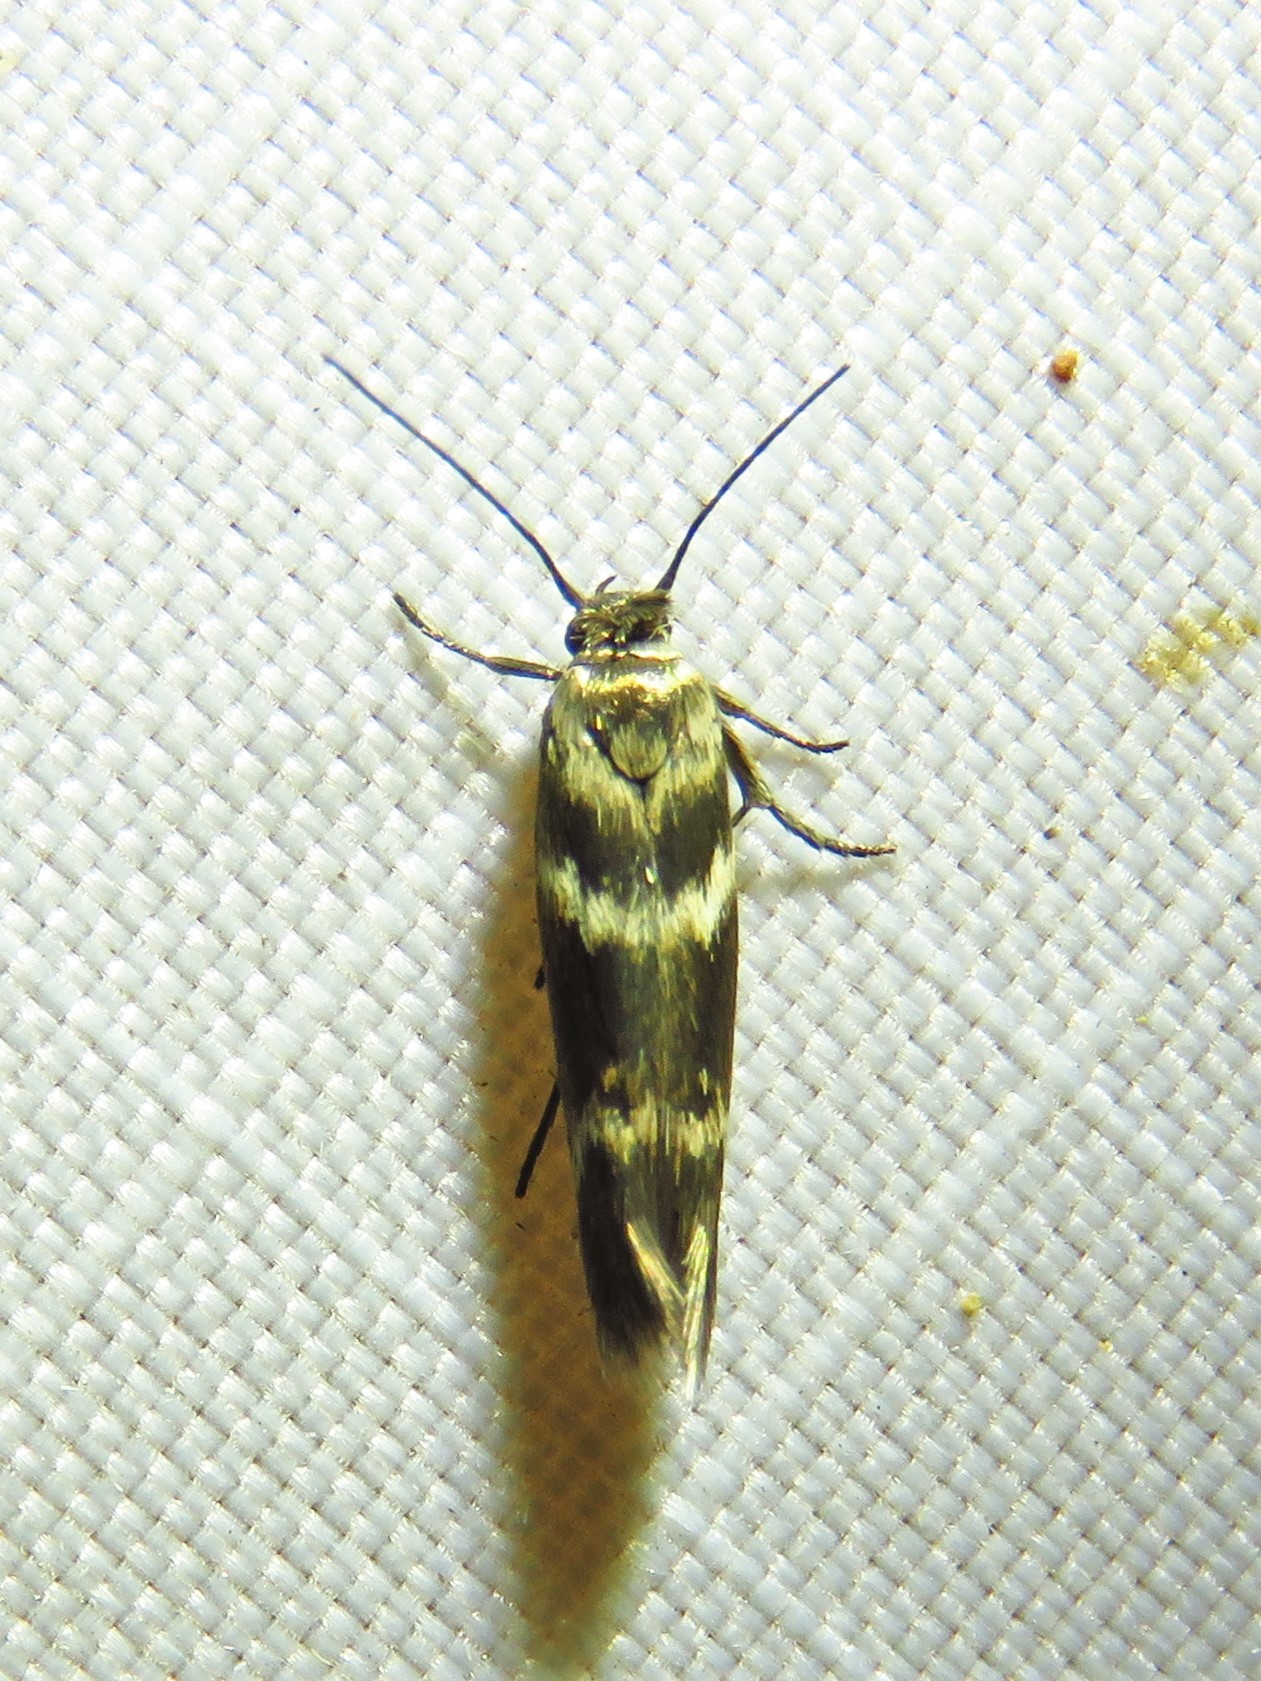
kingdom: Animalia
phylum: Arthropoda
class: Insecta
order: Lepidoptera
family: Scythrididae
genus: Scythris
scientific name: Scythris trivinctella
